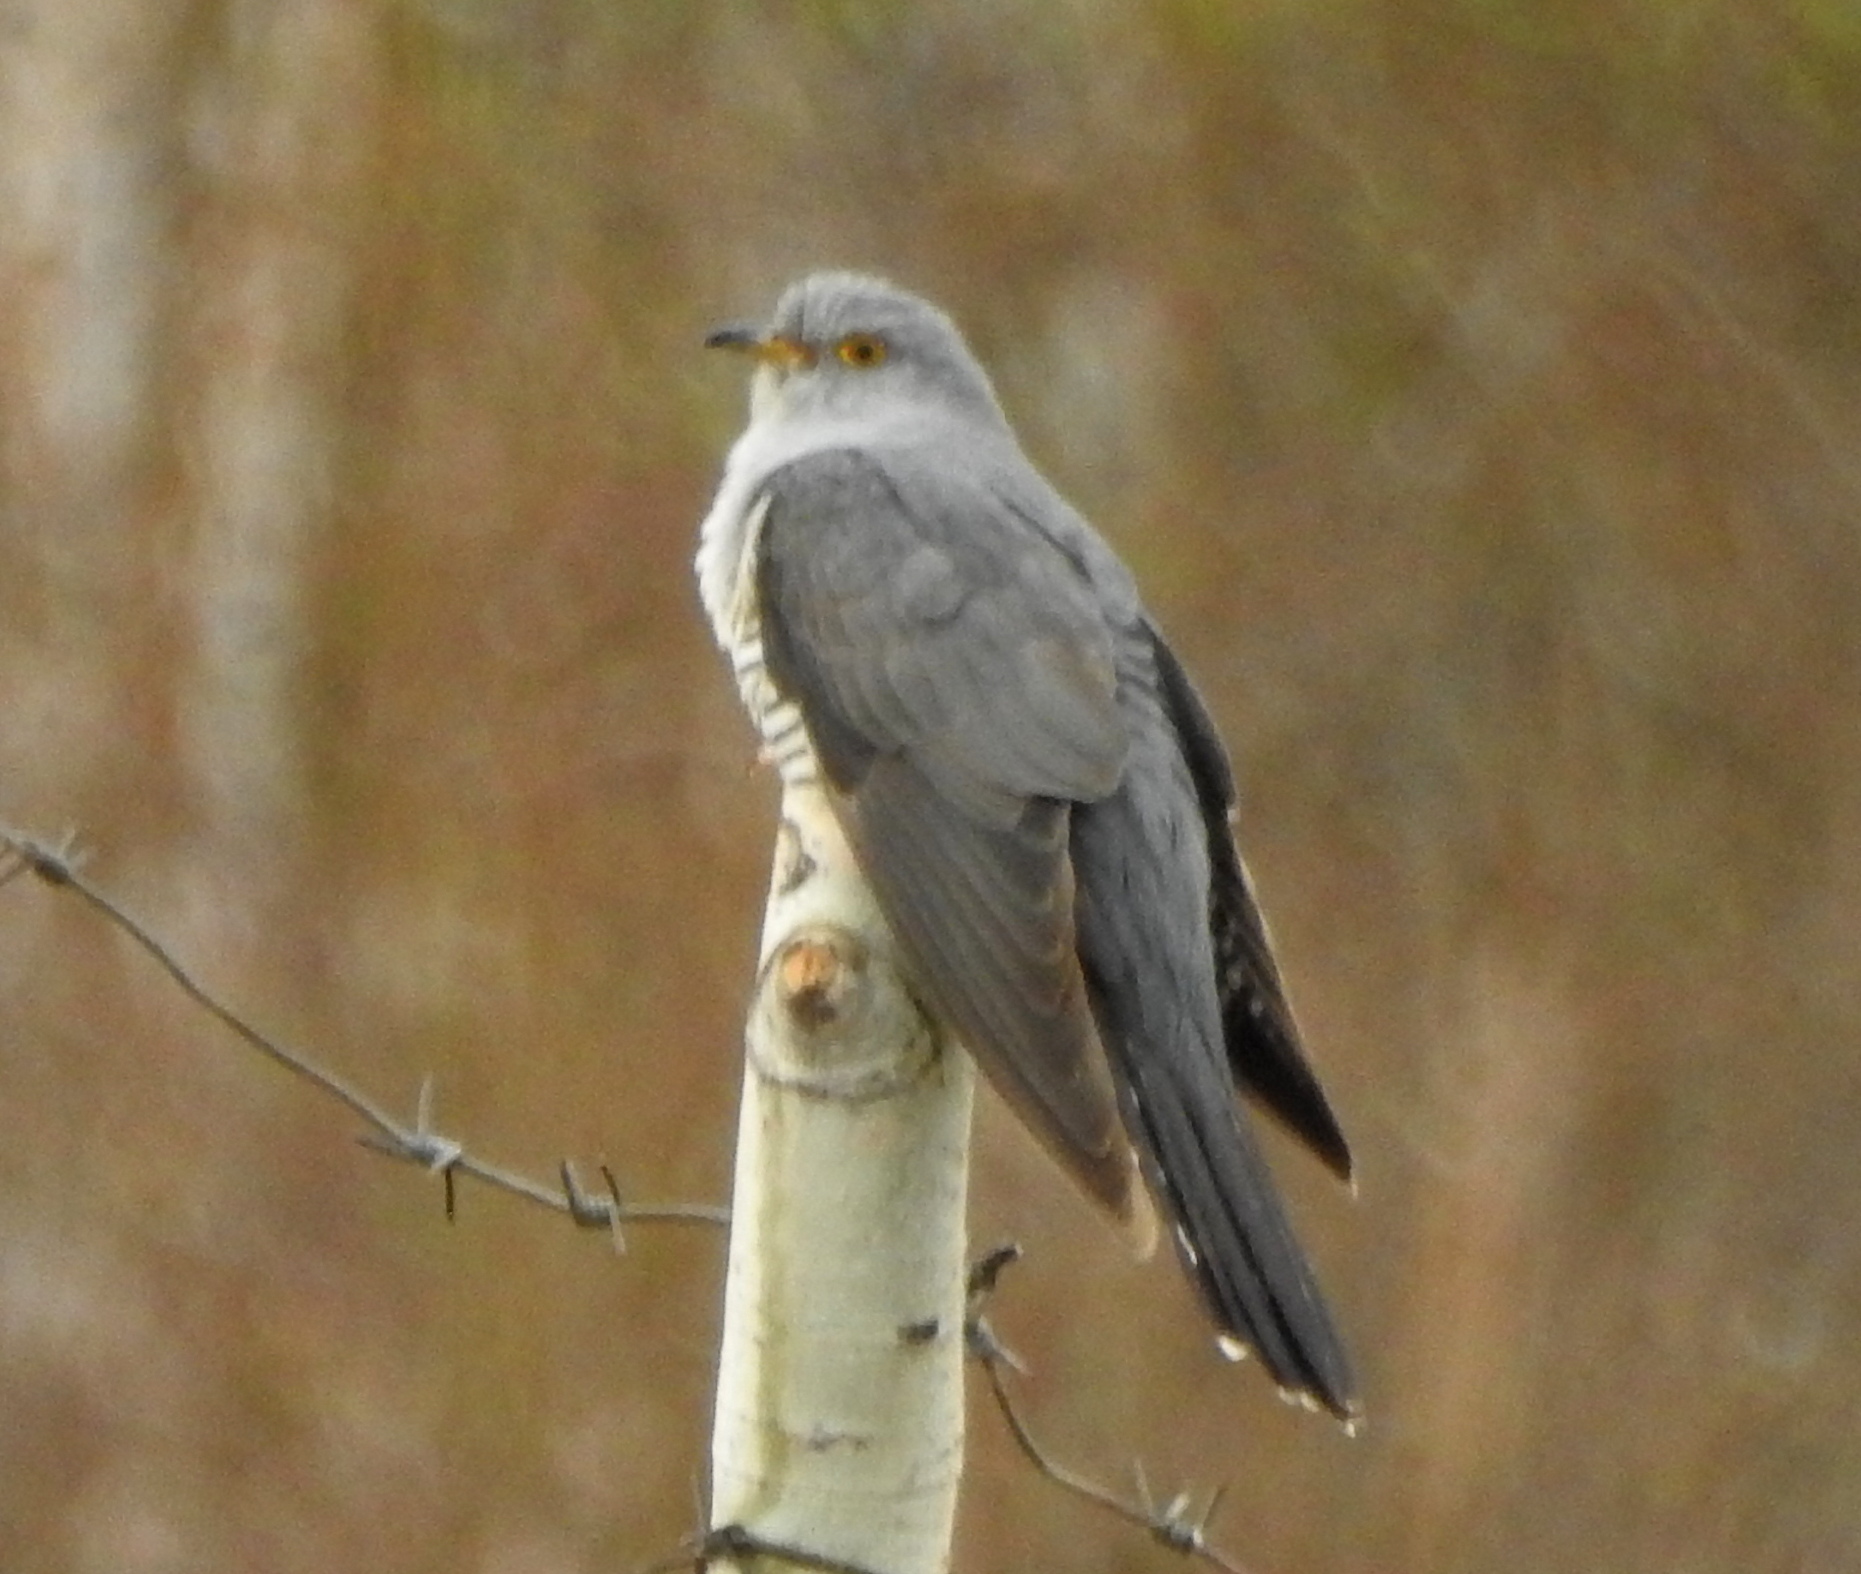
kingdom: Animalia
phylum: Chordata
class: Aves
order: Cuculiformes
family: Cuculidae
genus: Cuculus
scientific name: Cuculus optatus
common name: Oriental cuckoo
